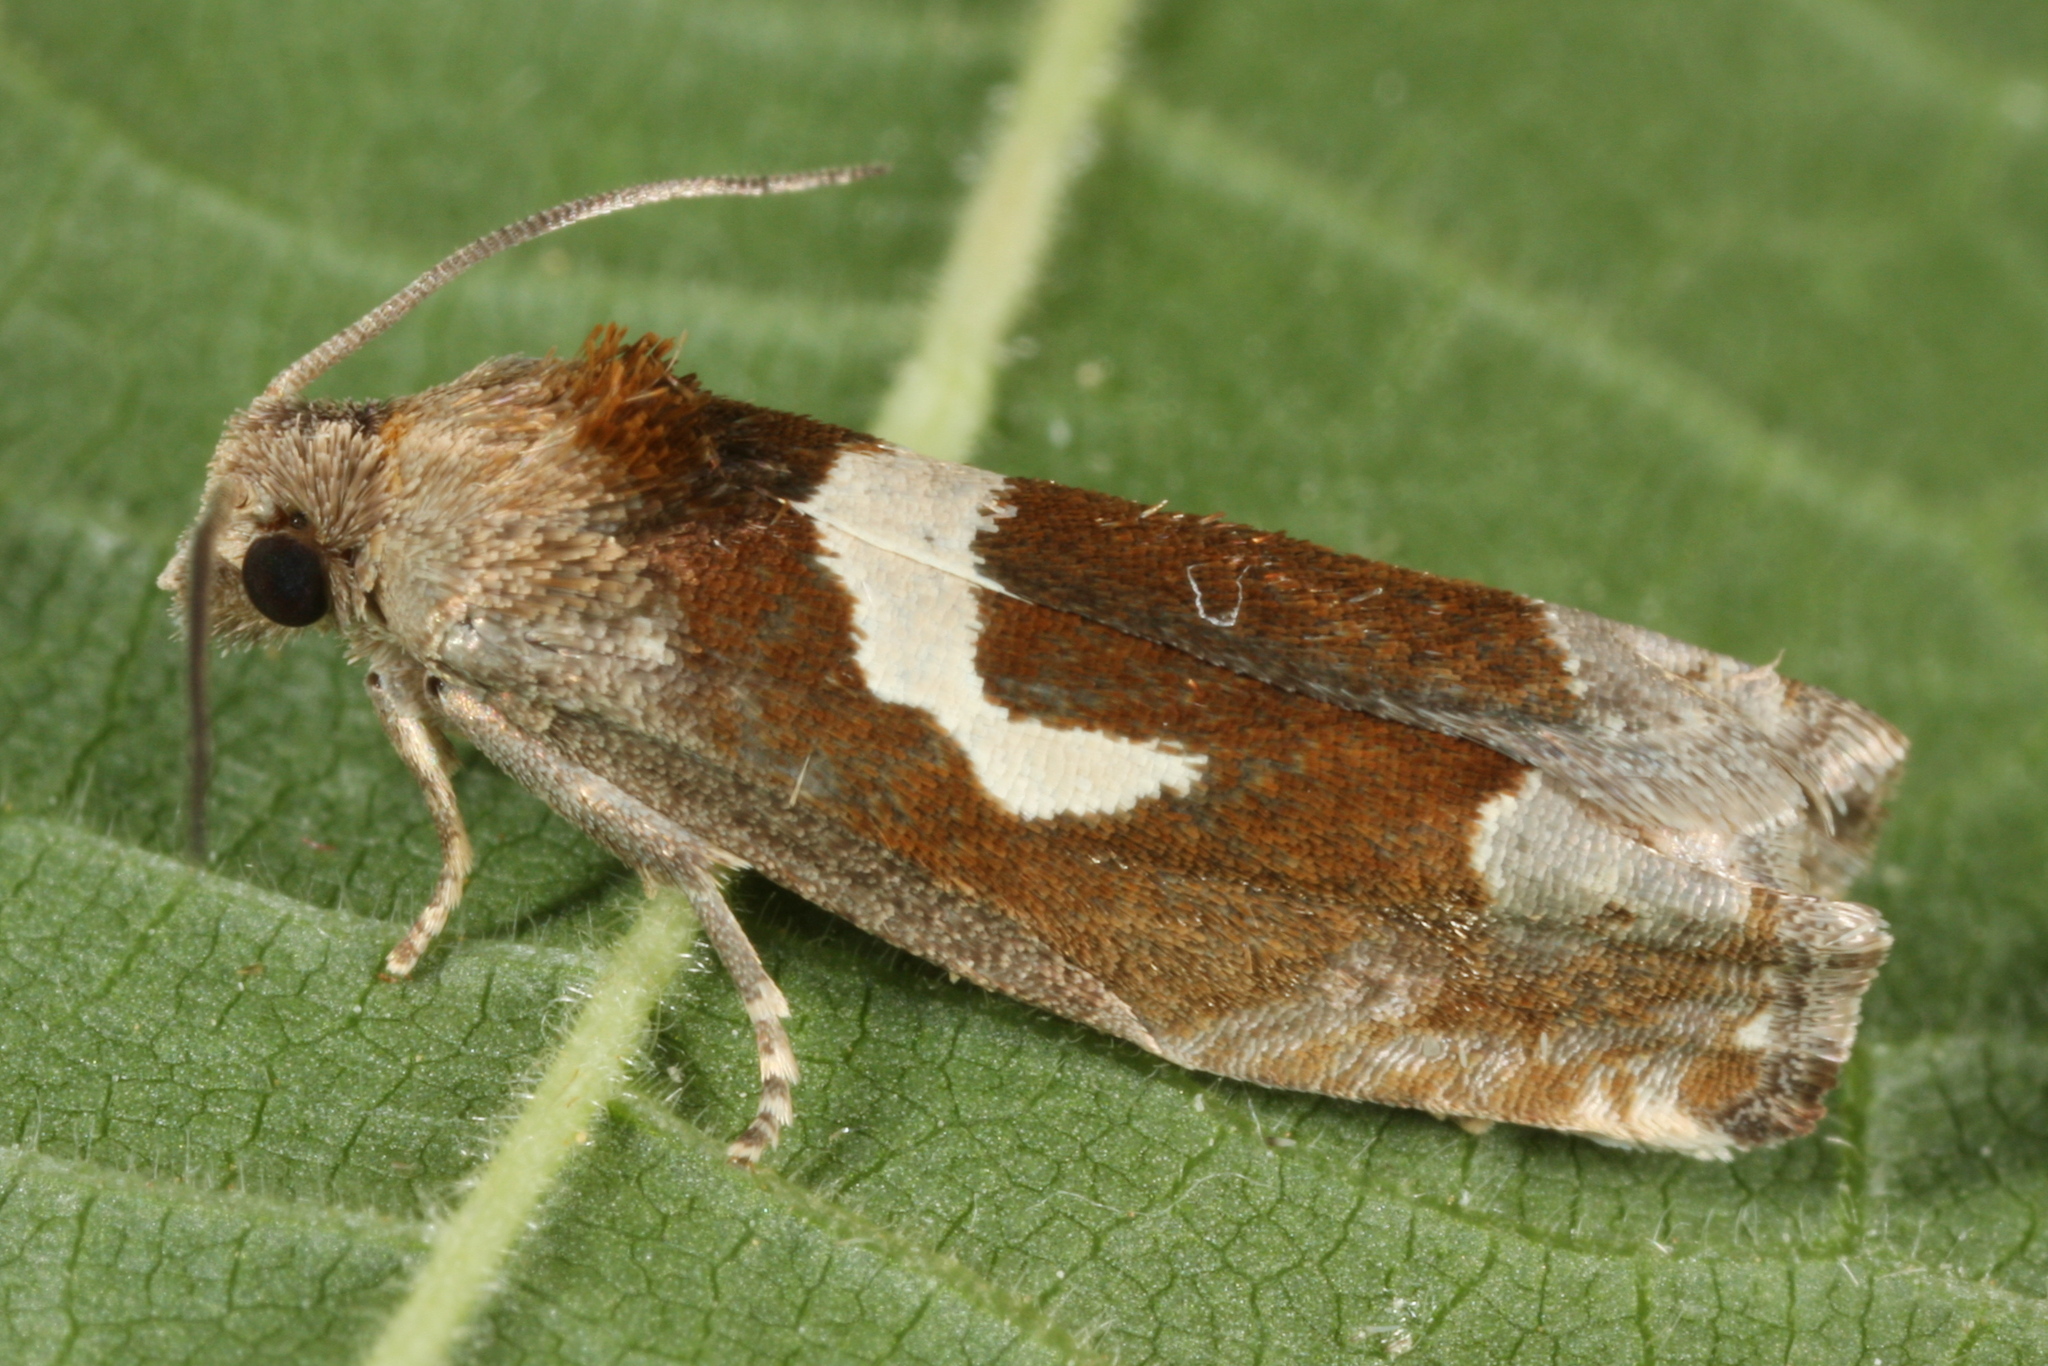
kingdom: Animalia
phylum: Arthropoda
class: Insecta
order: Lepidoptera
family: Tortricidae
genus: Epiblema
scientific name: Epiblema foenella
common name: White-foot bell
